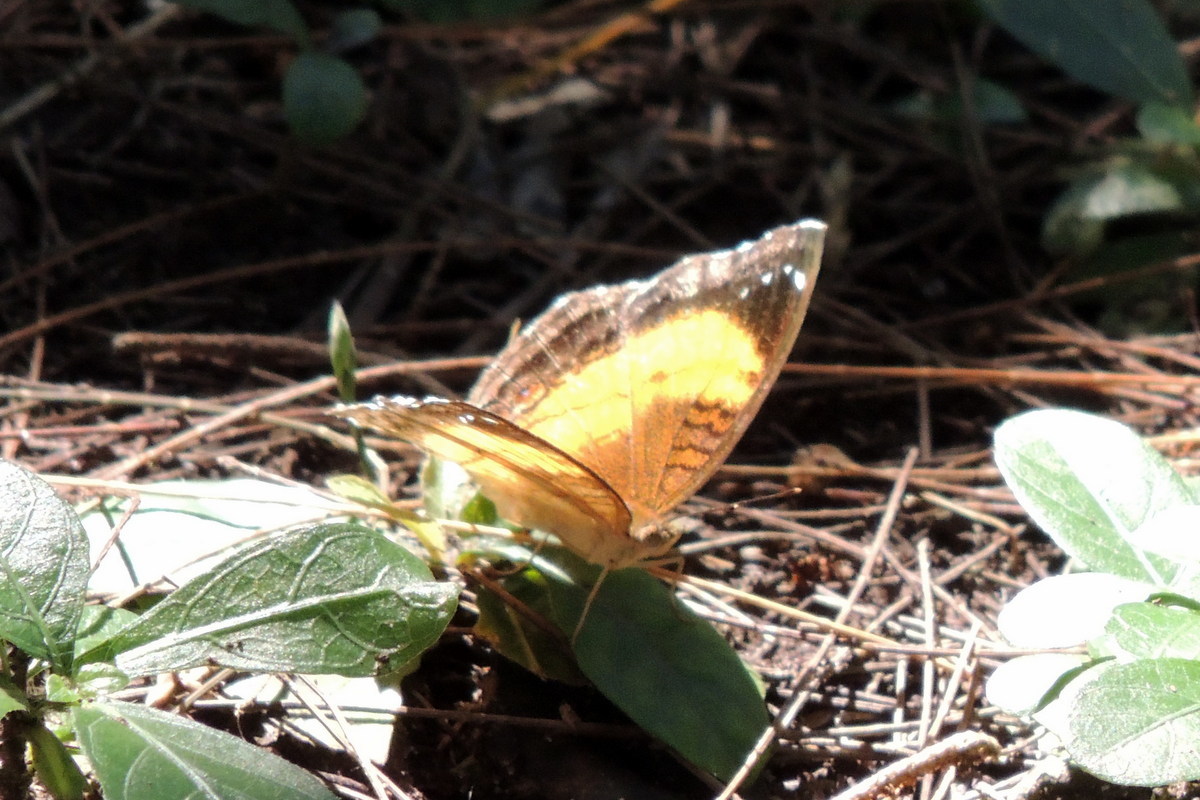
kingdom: Animalia
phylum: Arthropoda
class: Insecta
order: Lepidoptera
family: Nymphalidae
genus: Junonia
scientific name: Junonia terea
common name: Soldier pansy
